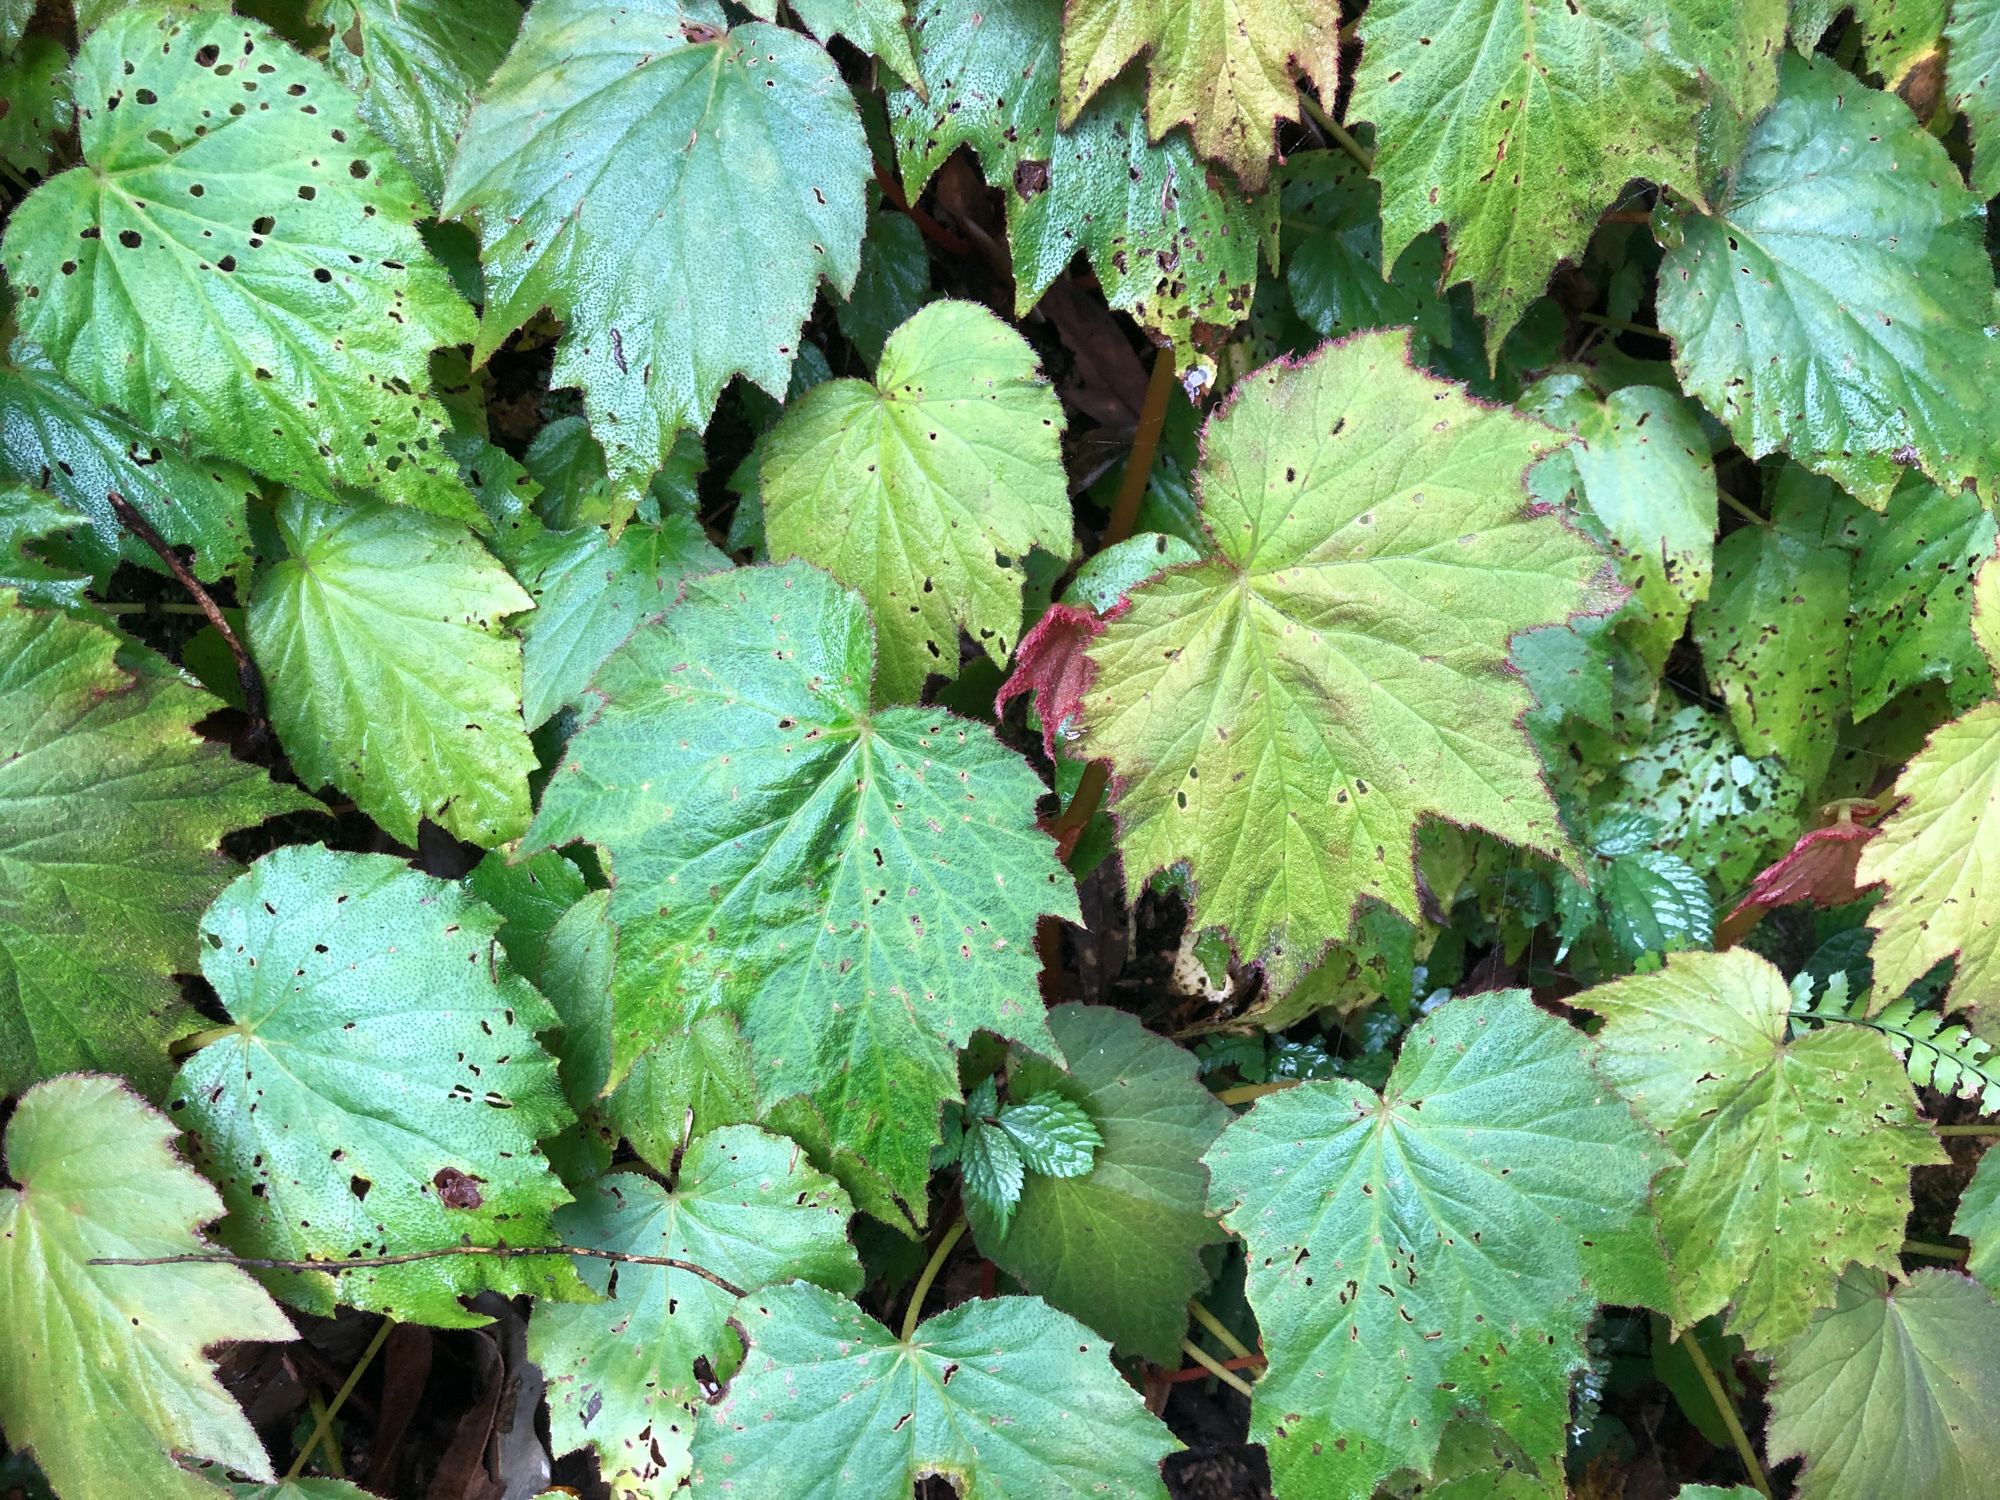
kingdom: Plantae
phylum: Tracheophyta
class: Magnoliopsida
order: Cucurbitales
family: Begoniaceae
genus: Begonia
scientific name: Begonia palmata
